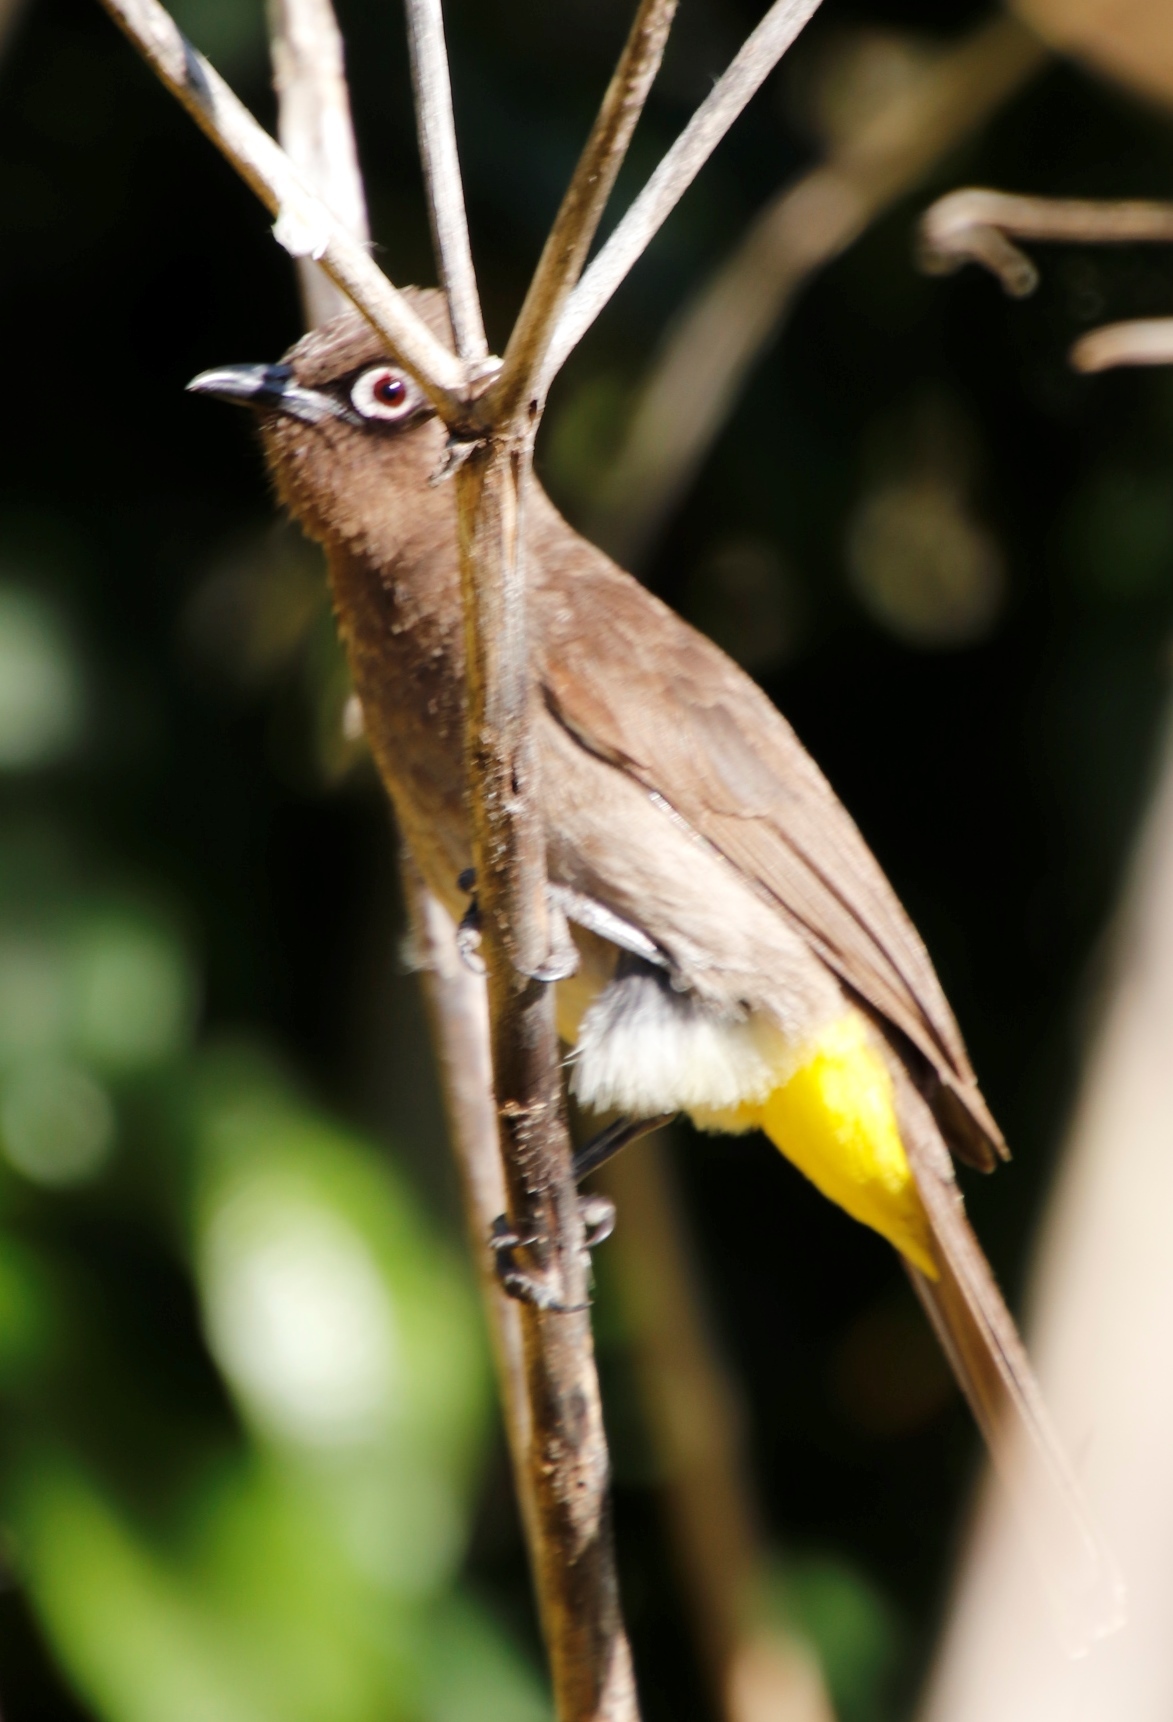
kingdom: Animalia
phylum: Chordata
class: Aves
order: Passeriformes
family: Pycnonotidae
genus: Pycnonotus
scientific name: Pycnonotus capensis
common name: Cape bulbul
